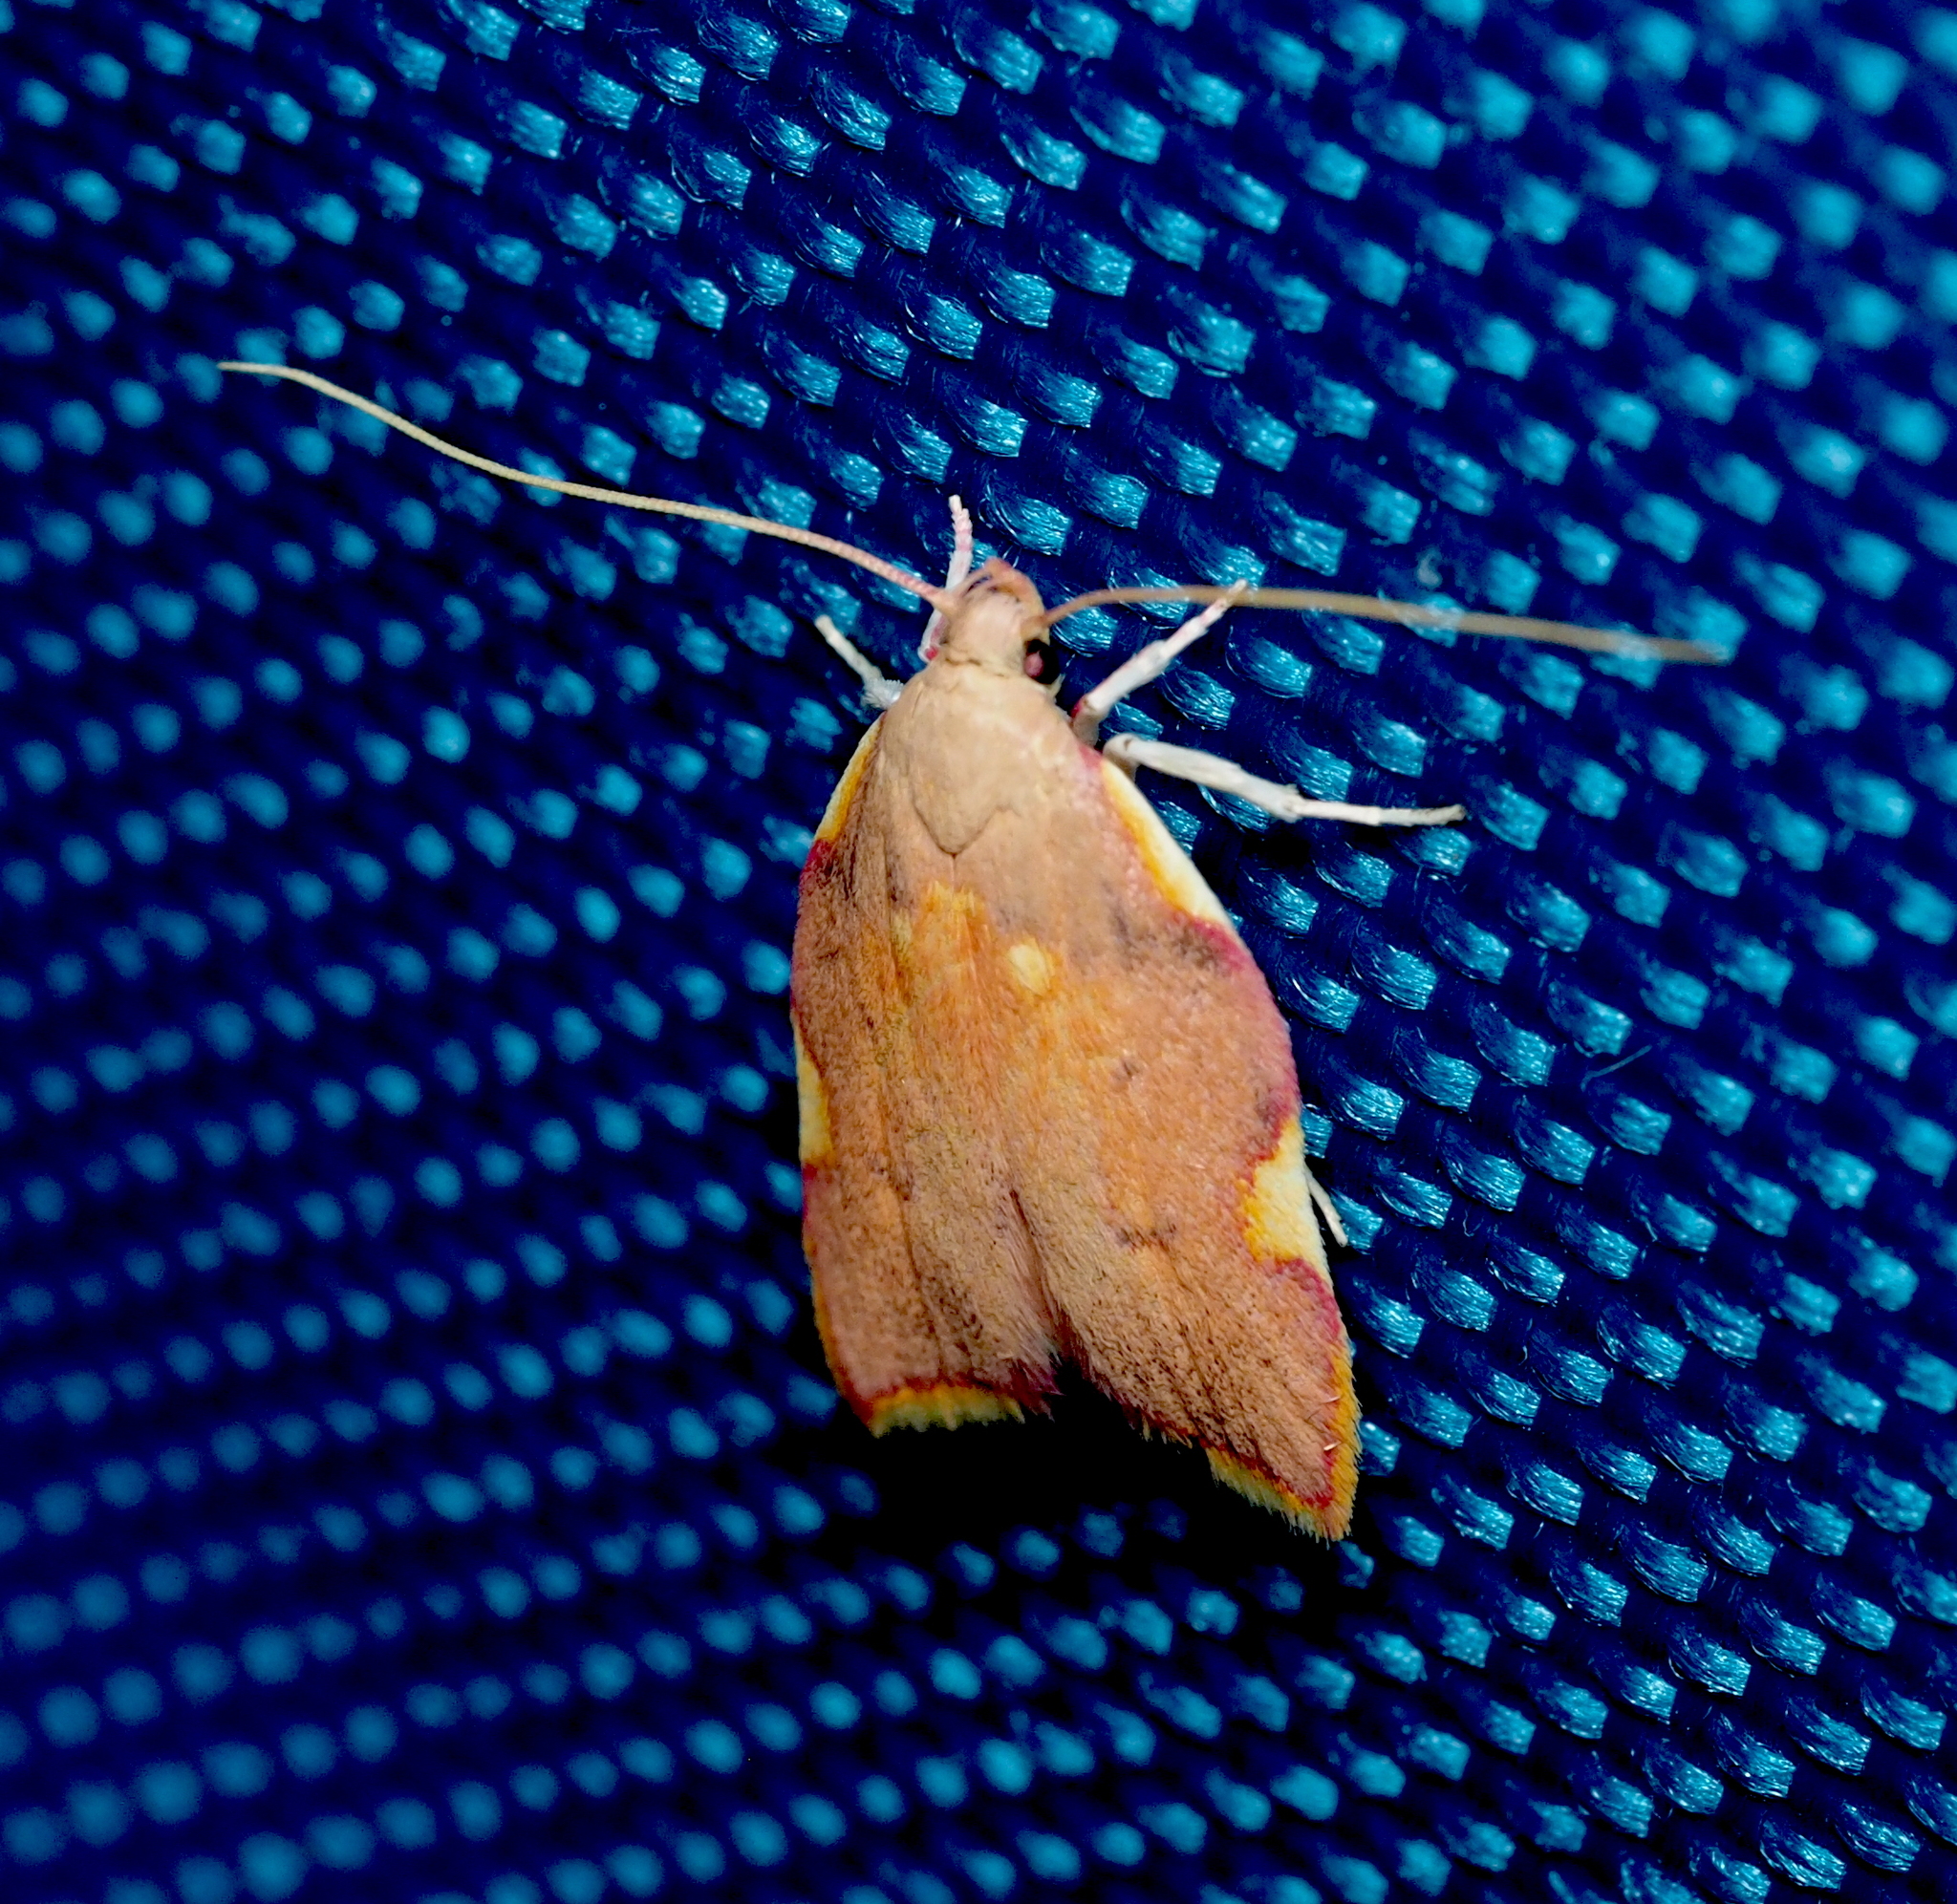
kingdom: Animalia
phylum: Arthropoda
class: Insecta
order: Lepidoptera
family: Peleopodidae
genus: Carcina
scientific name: Carcina quercana
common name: Moth
